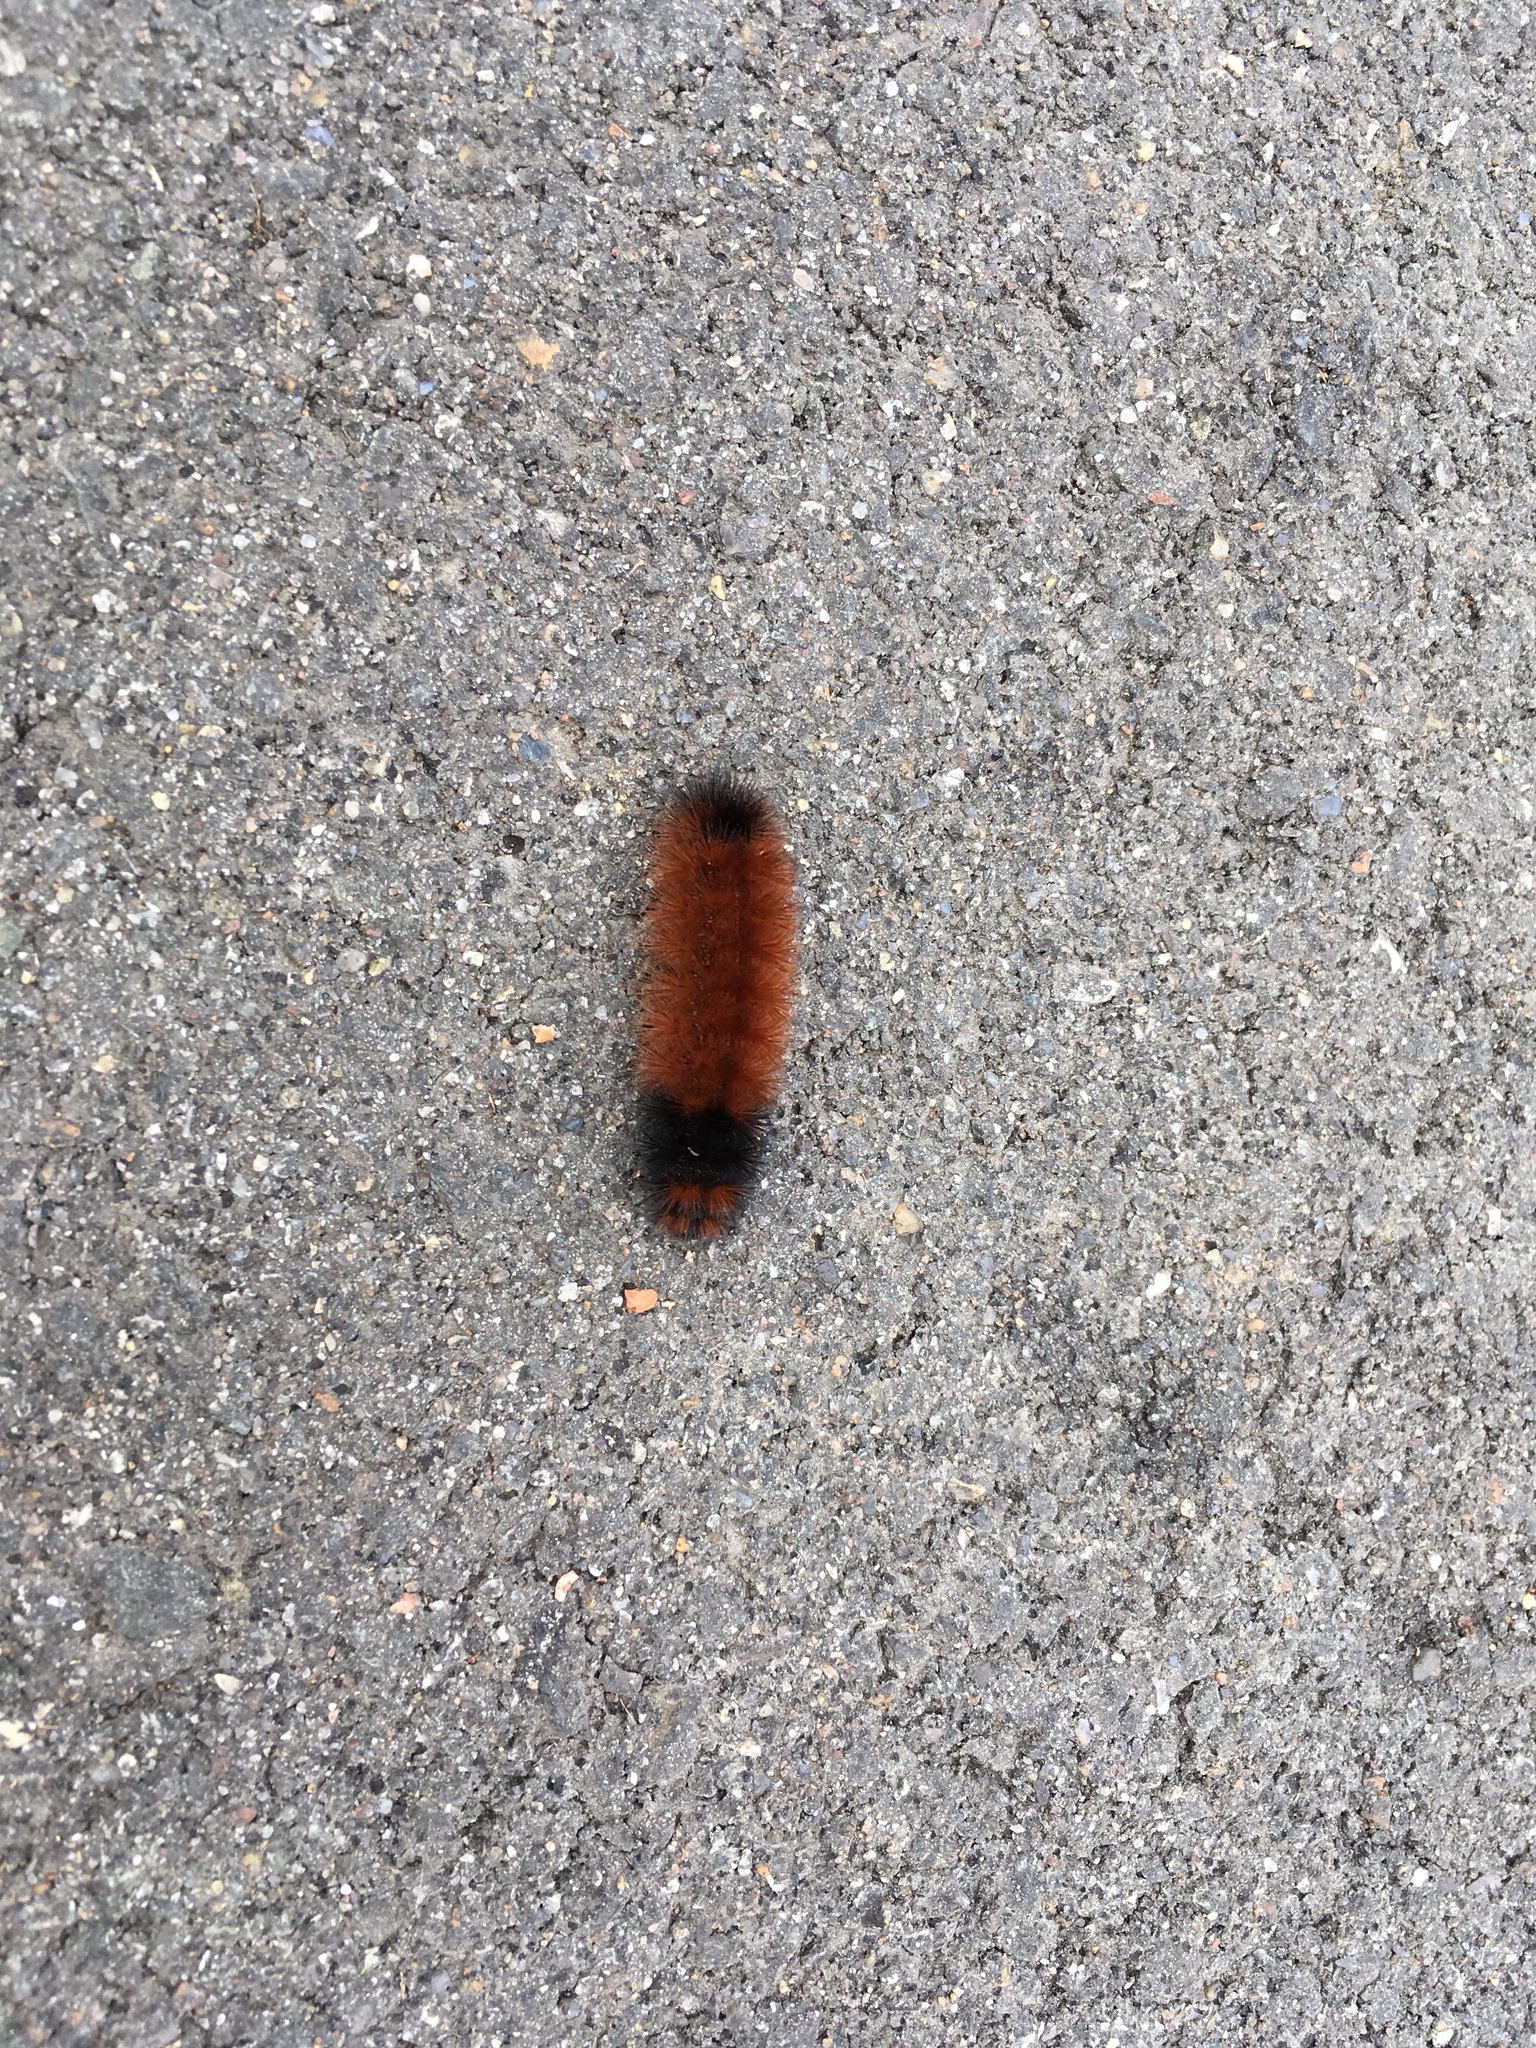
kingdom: Animalia
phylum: Arthropoda
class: Insecta
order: Lepidoptera
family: Erebidae
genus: Pyrrharctia
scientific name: Pyrrharctia isabella
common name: Isabella tiger moth
